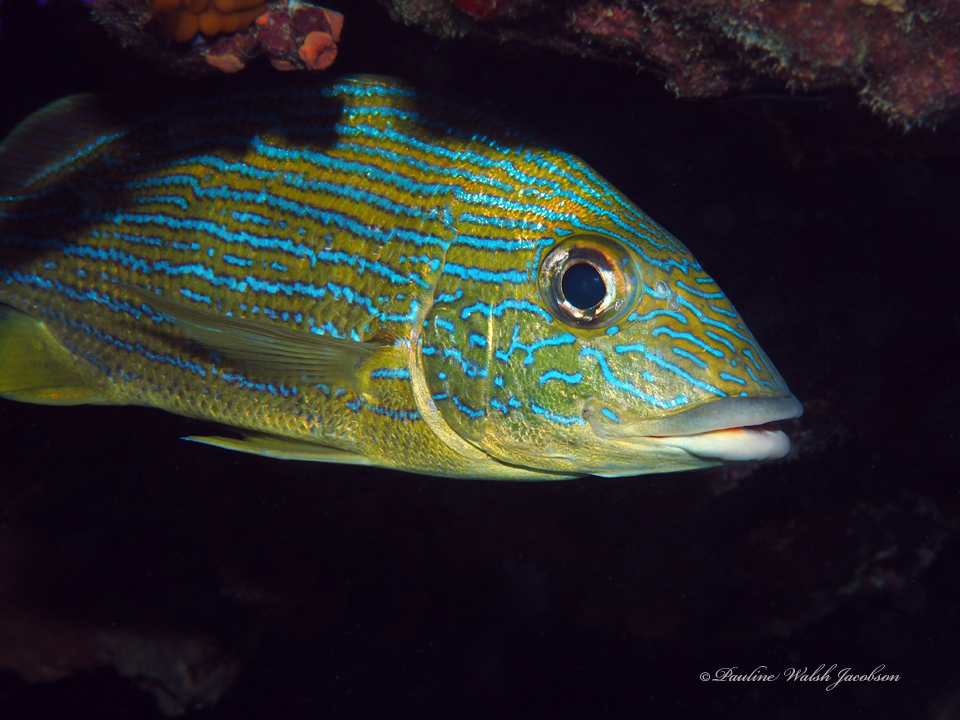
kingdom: Animalia
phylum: Chordata
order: Perciformes
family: Haemulidae
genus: Haemulon
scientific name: Haemulon sciurus
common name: Bluestriped grunt
